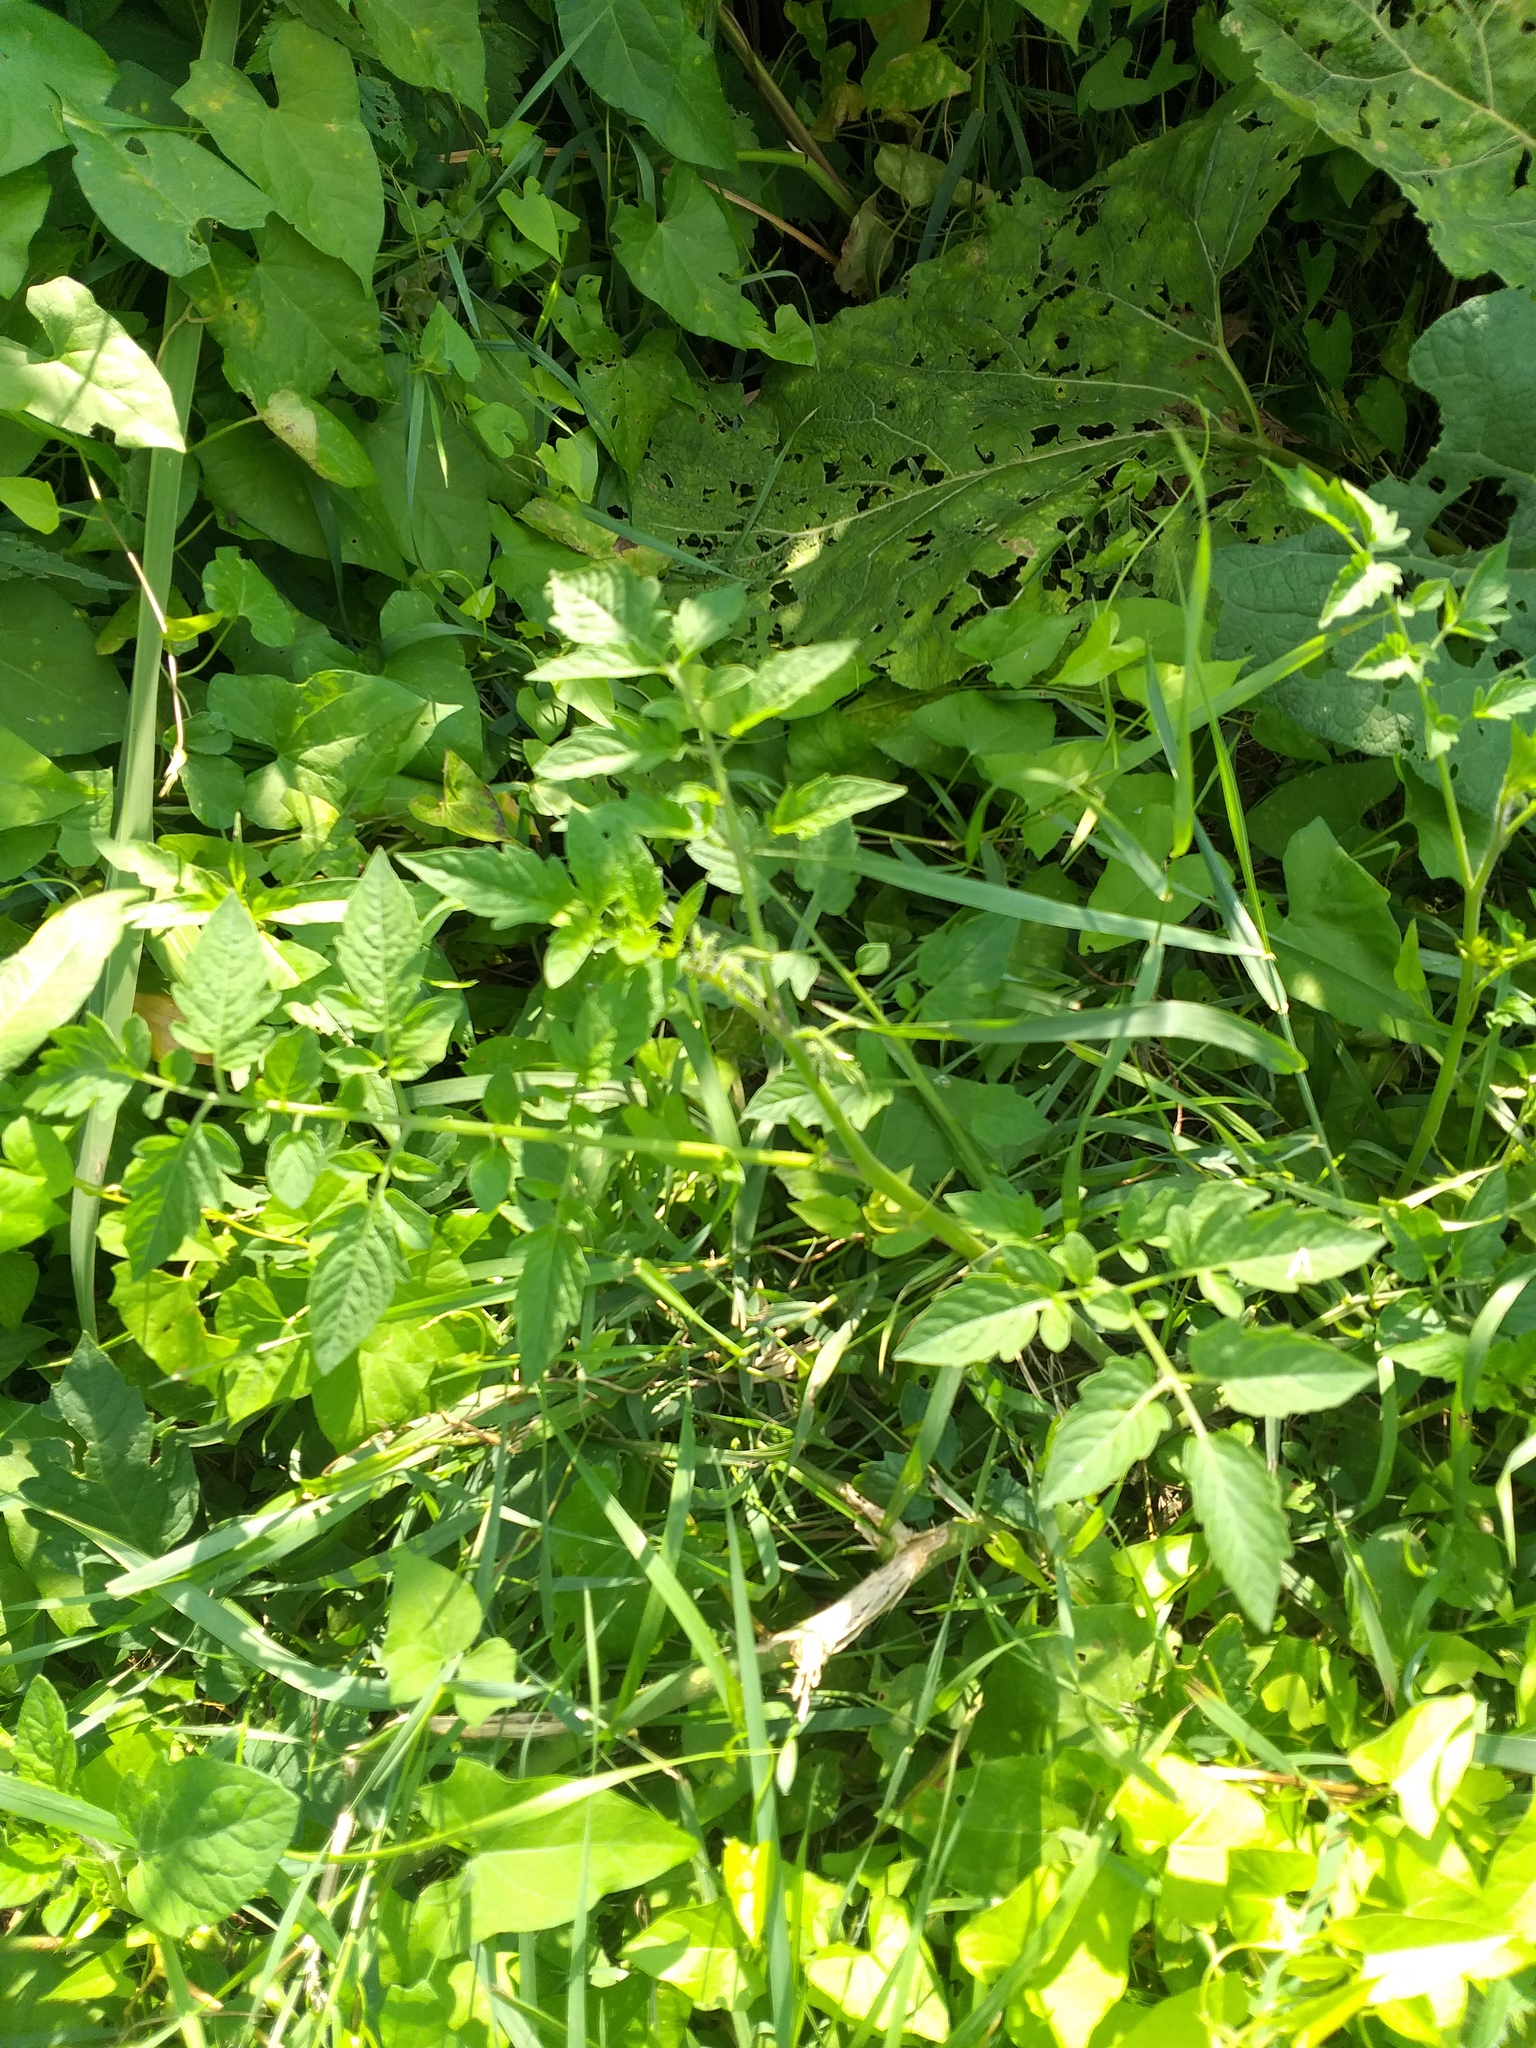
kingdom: Plantae
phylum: Tracheophyta
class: Magnoliopsida
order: Solanales
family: Solanaceae
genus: Solanum
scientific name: Solanum lycopersicum
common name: Garden tomato
